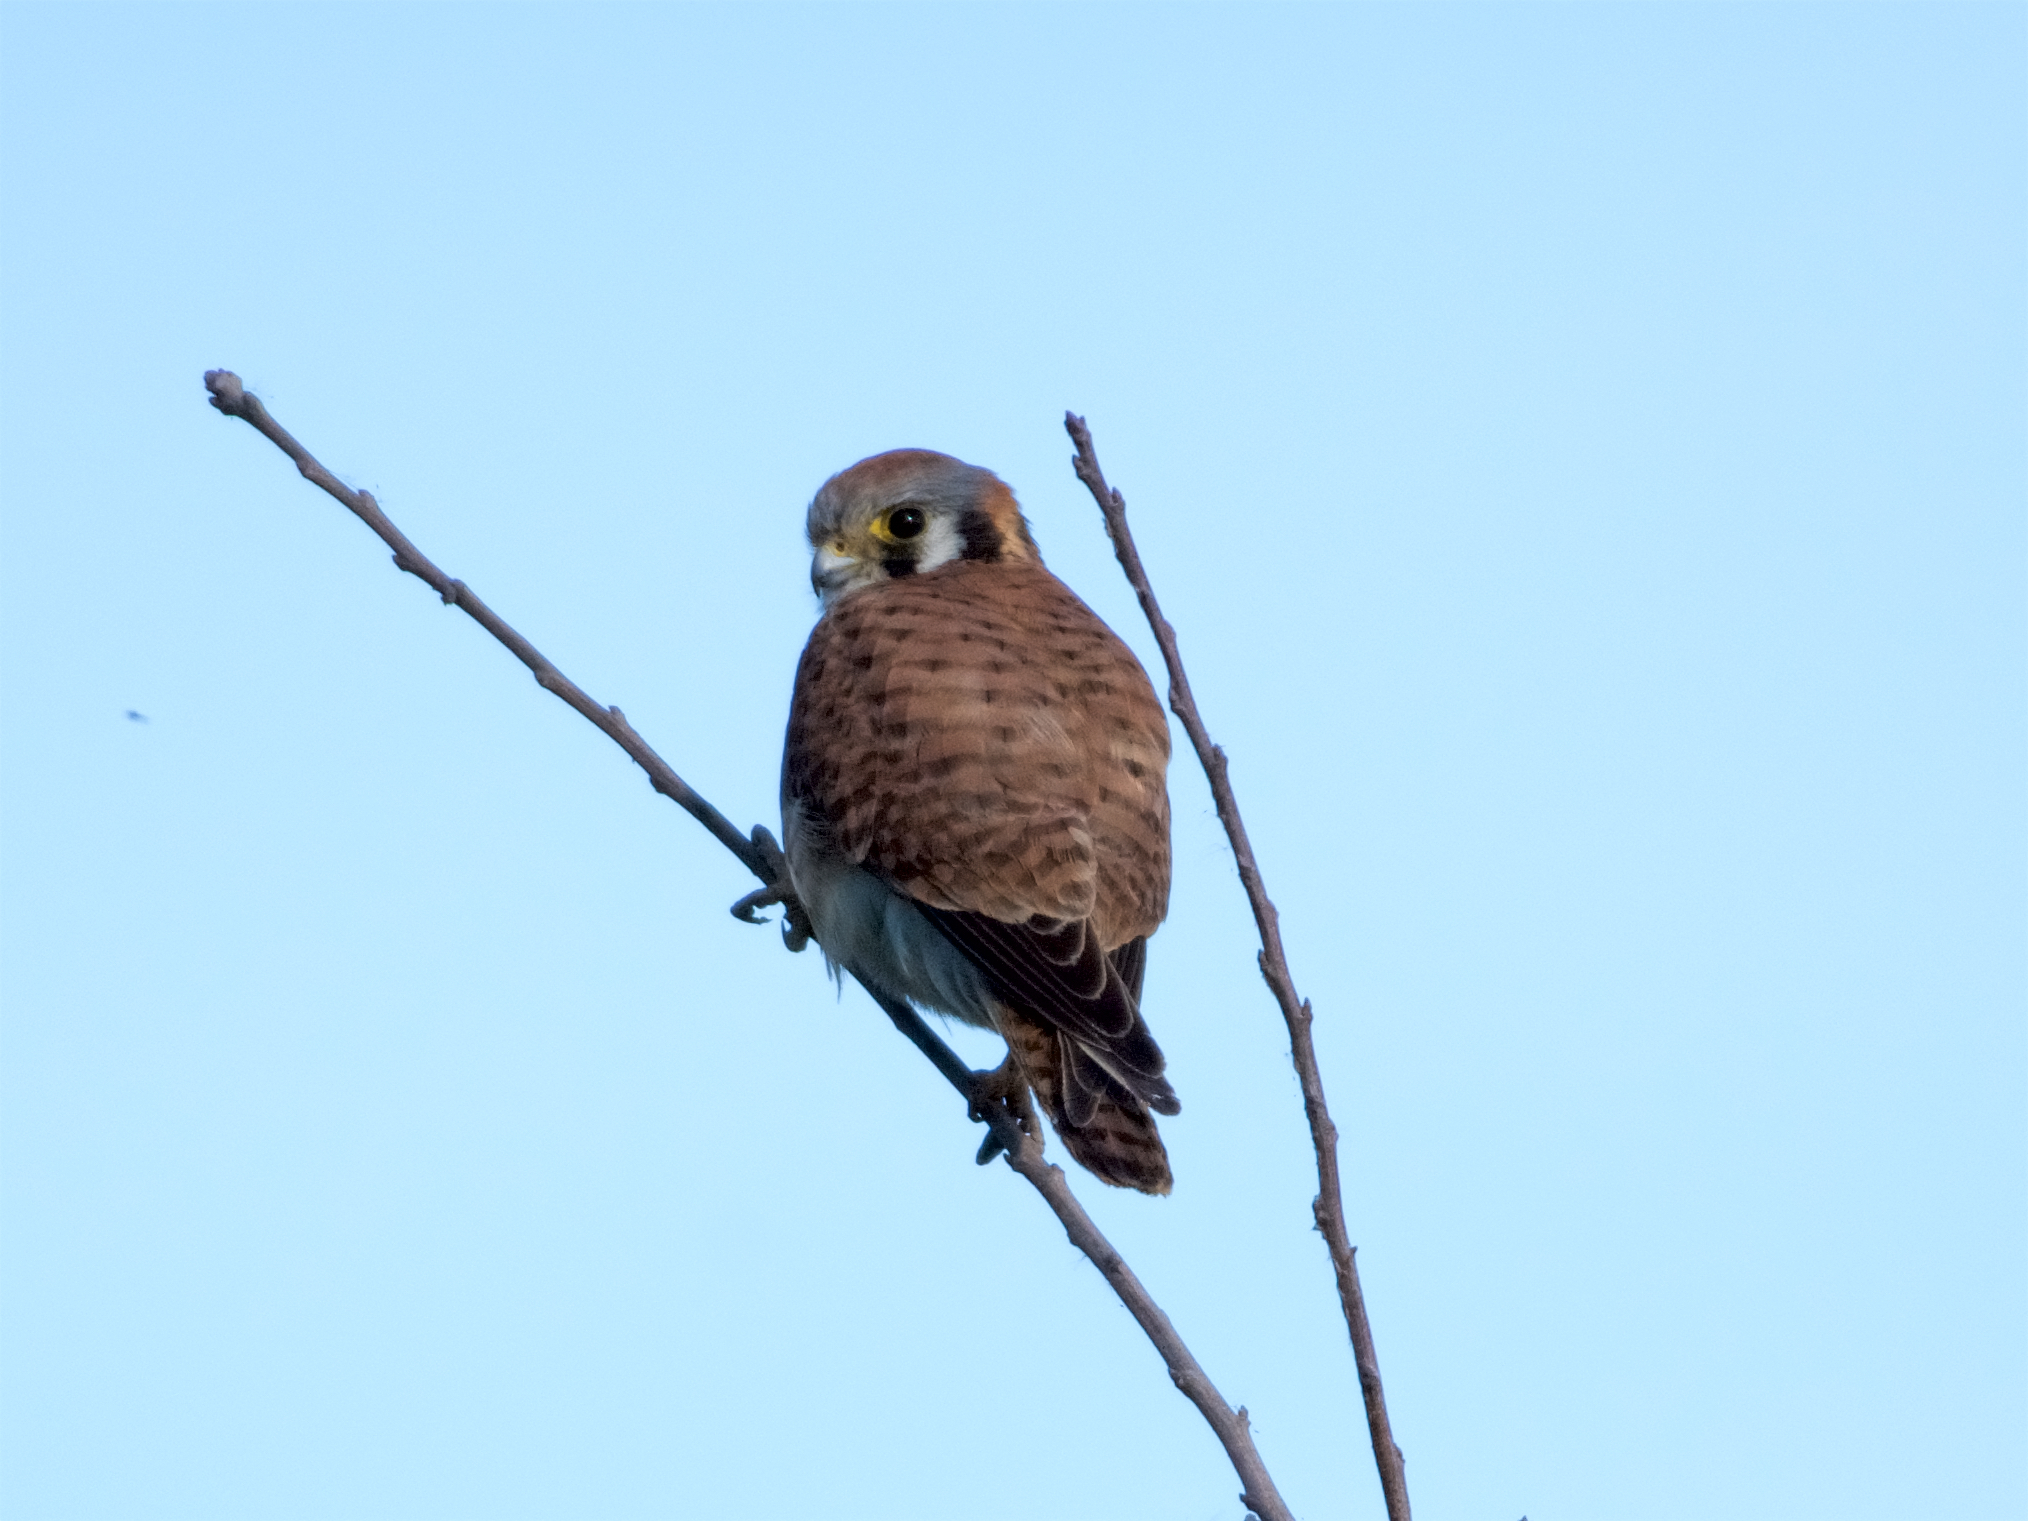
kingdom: Animalia
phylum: Chordata
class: Aves
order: Falconiformes
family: Falconidae
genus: Falco
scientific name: Falco sparverius
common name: American kestrel
